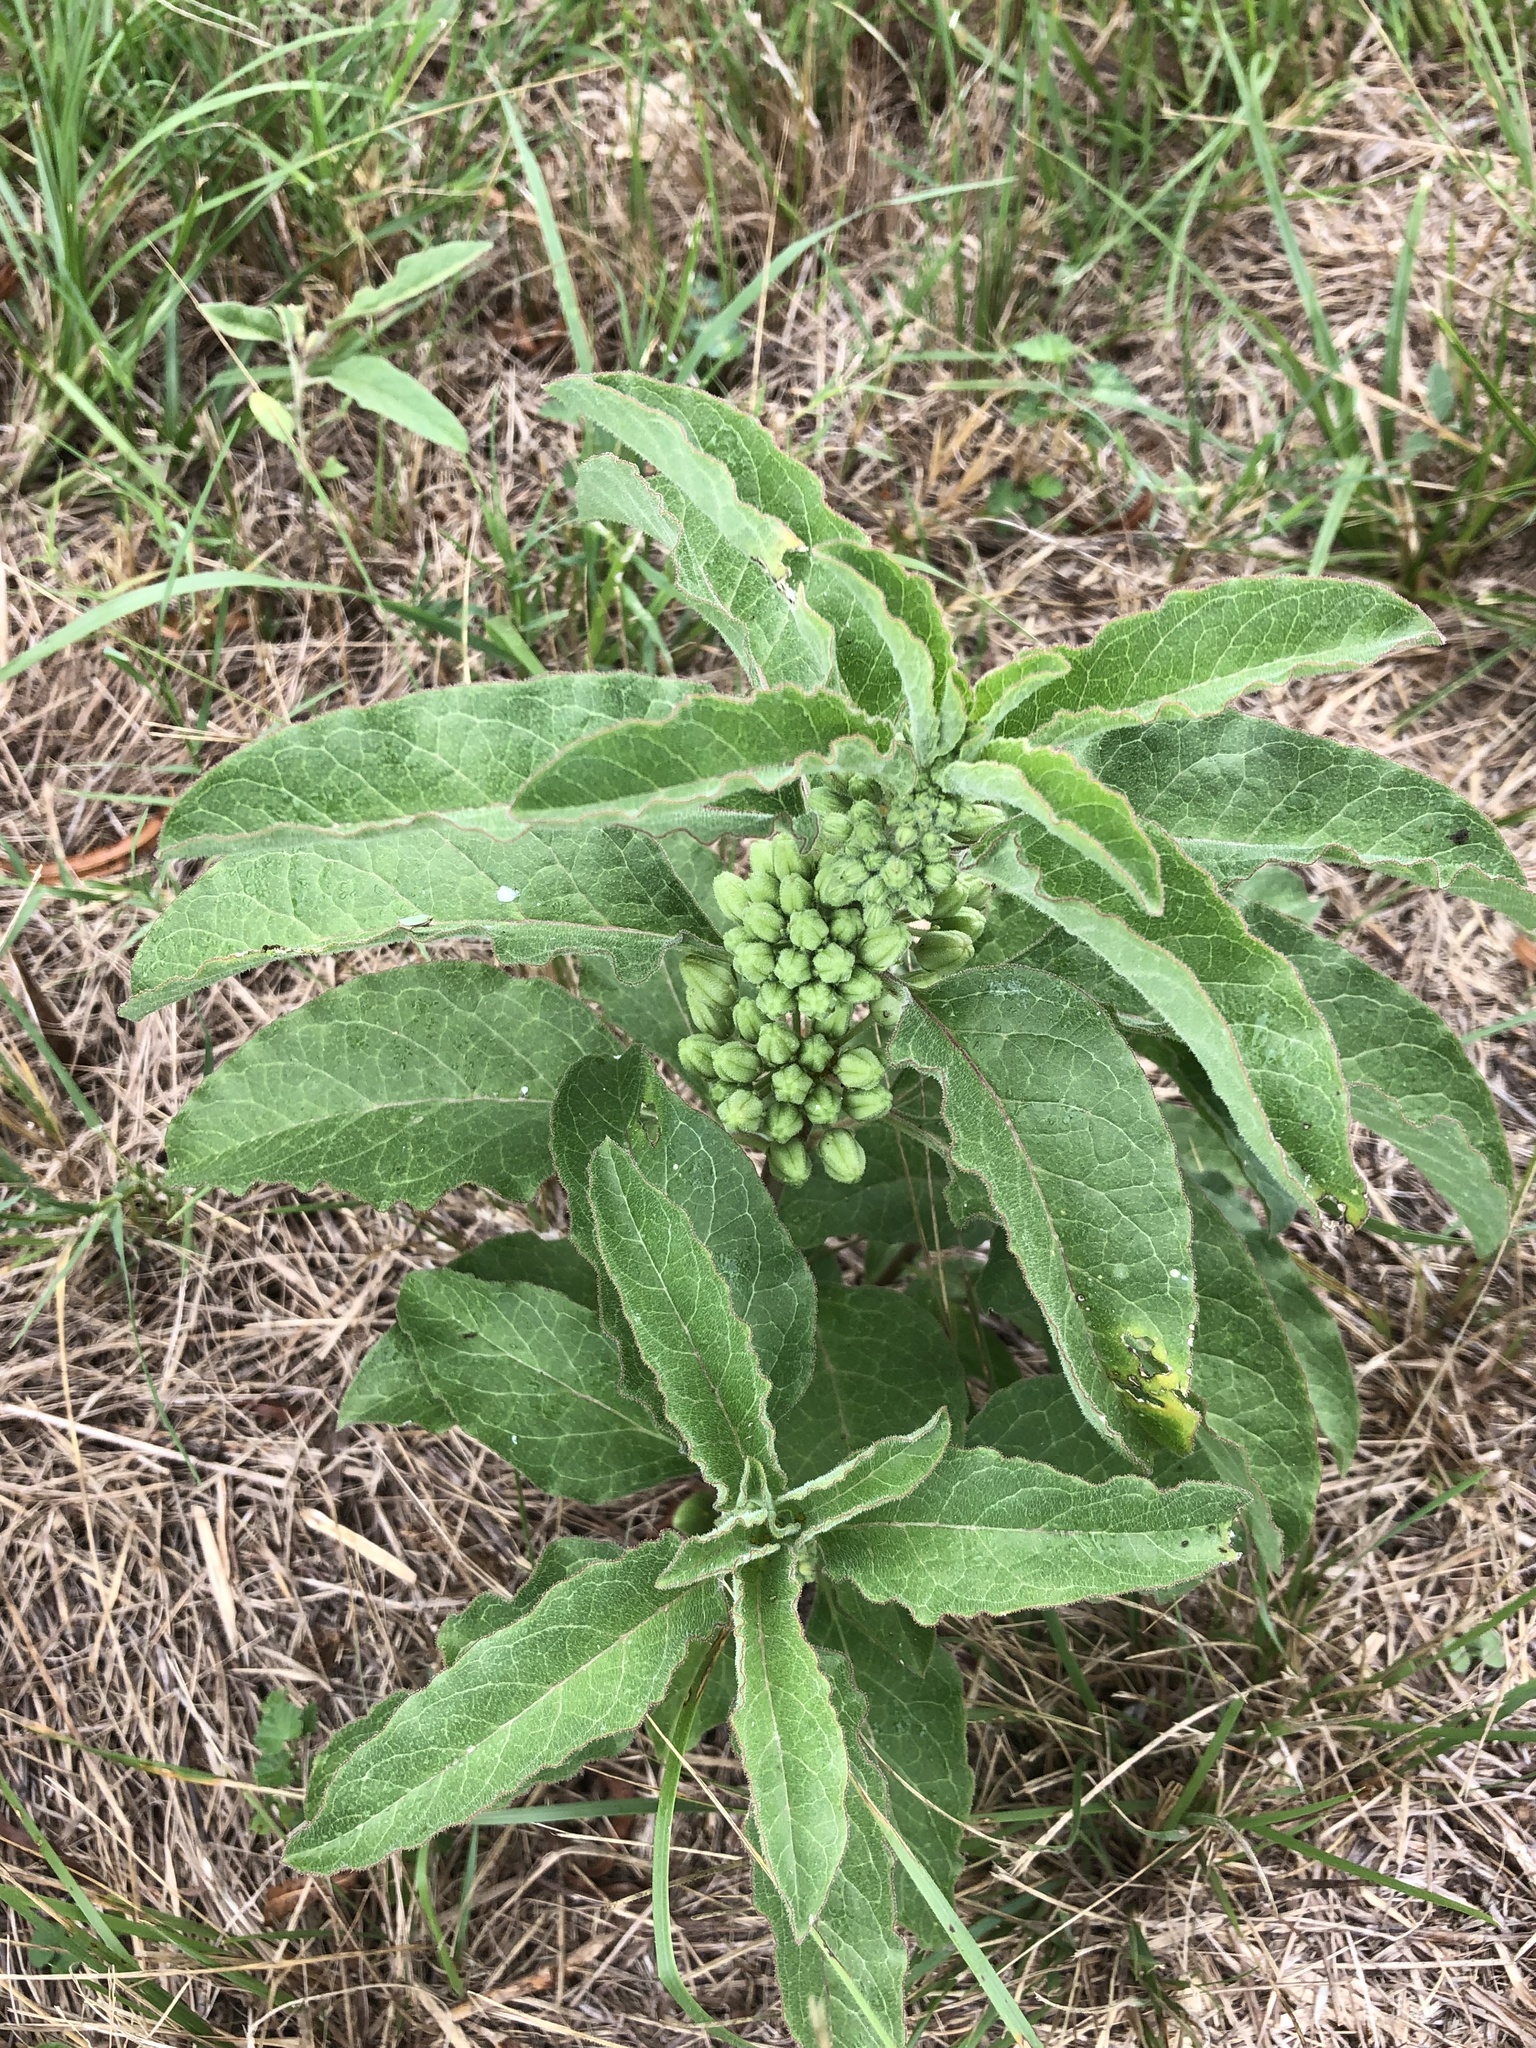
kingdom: Plantae
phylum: Tracheophyta
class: Magnoliopsida
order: Gentianales
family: Apocynaceae
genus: Asclepias
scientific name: Asclepias oenotheroides
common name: Zizotes milkweed
